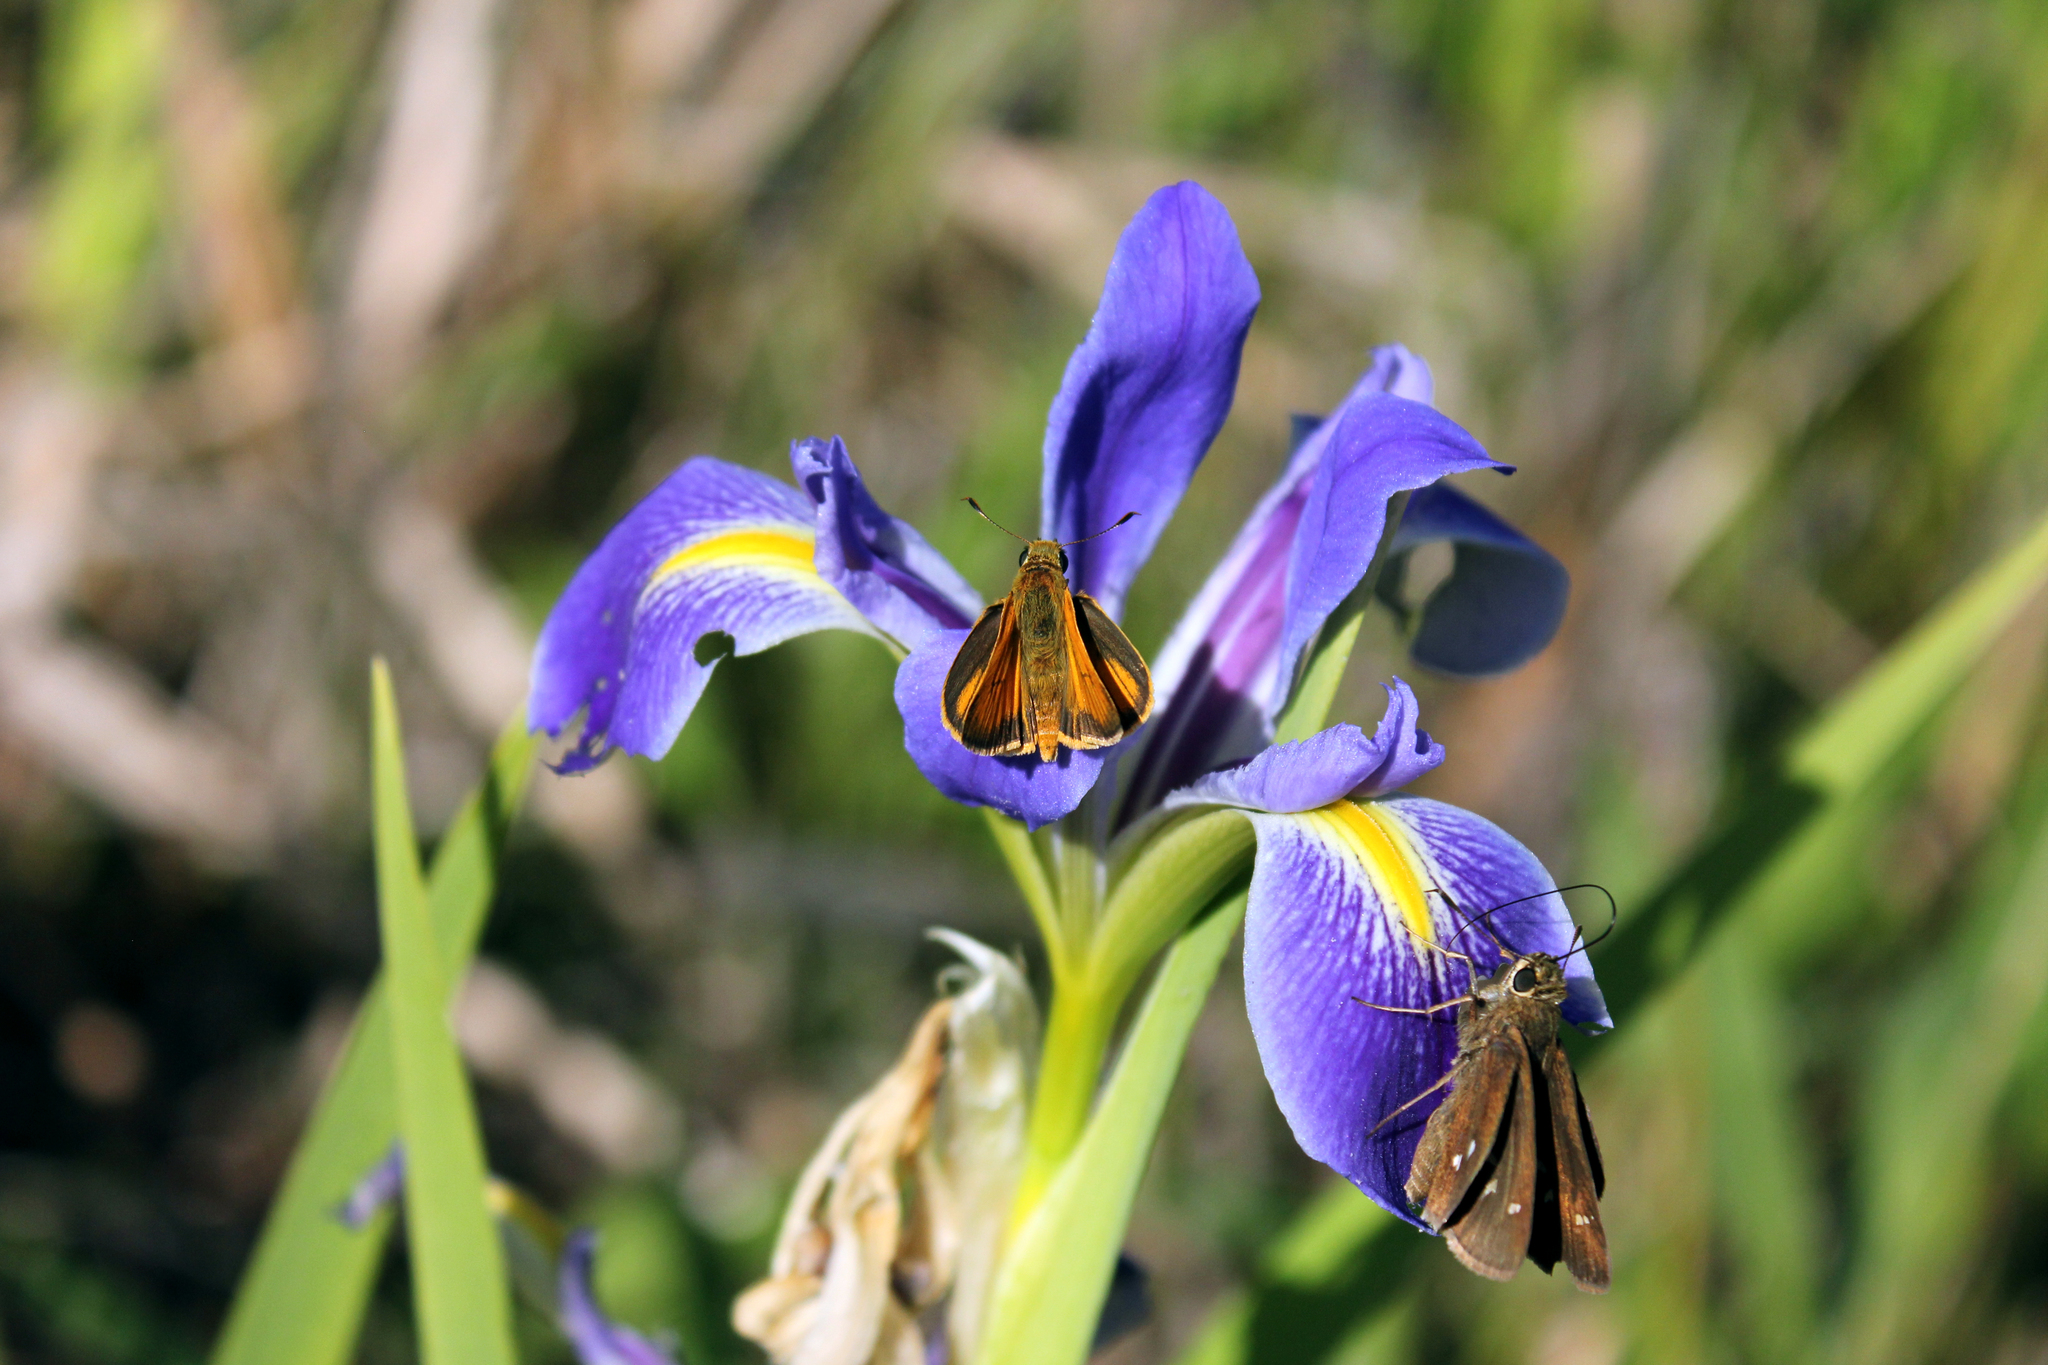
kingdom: Animalia
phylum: Arthropoda
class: Insecta
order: Lepidoptera
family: Hesperiidae
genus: Atrytone
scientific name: Atrytone delaware
